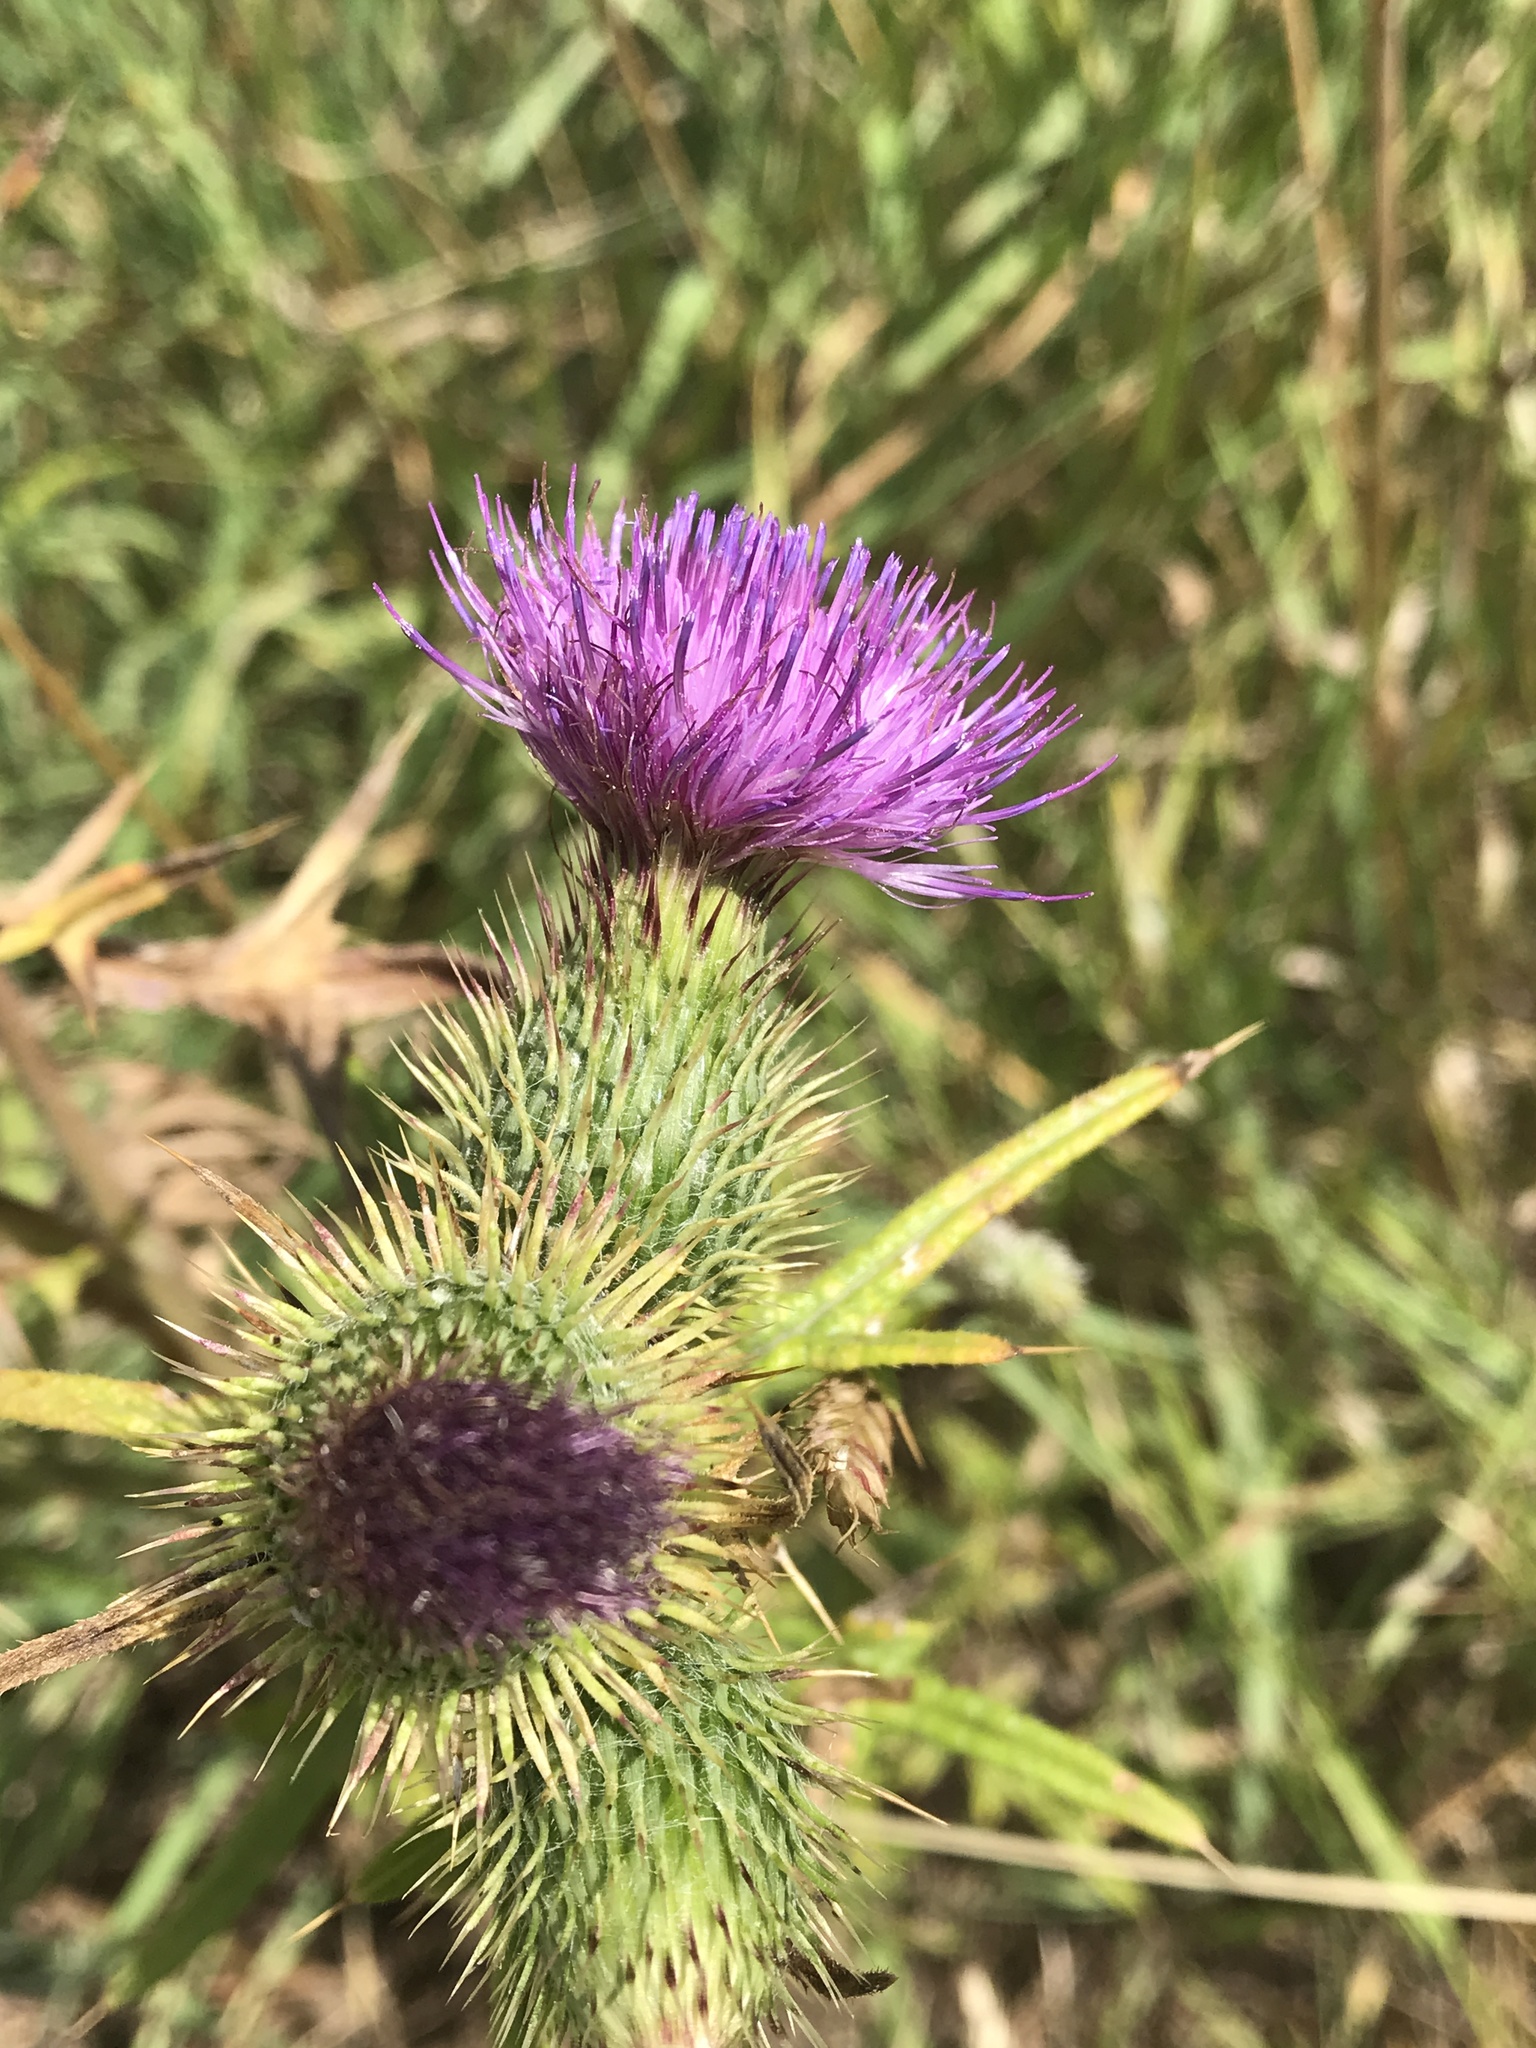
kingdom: Plantae
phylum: Tracheophyta
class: Magnoliopsida
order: Asterales
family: Asteraceae
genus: Cirsium
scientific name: Cirsium vulgare
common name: Bull thistle
